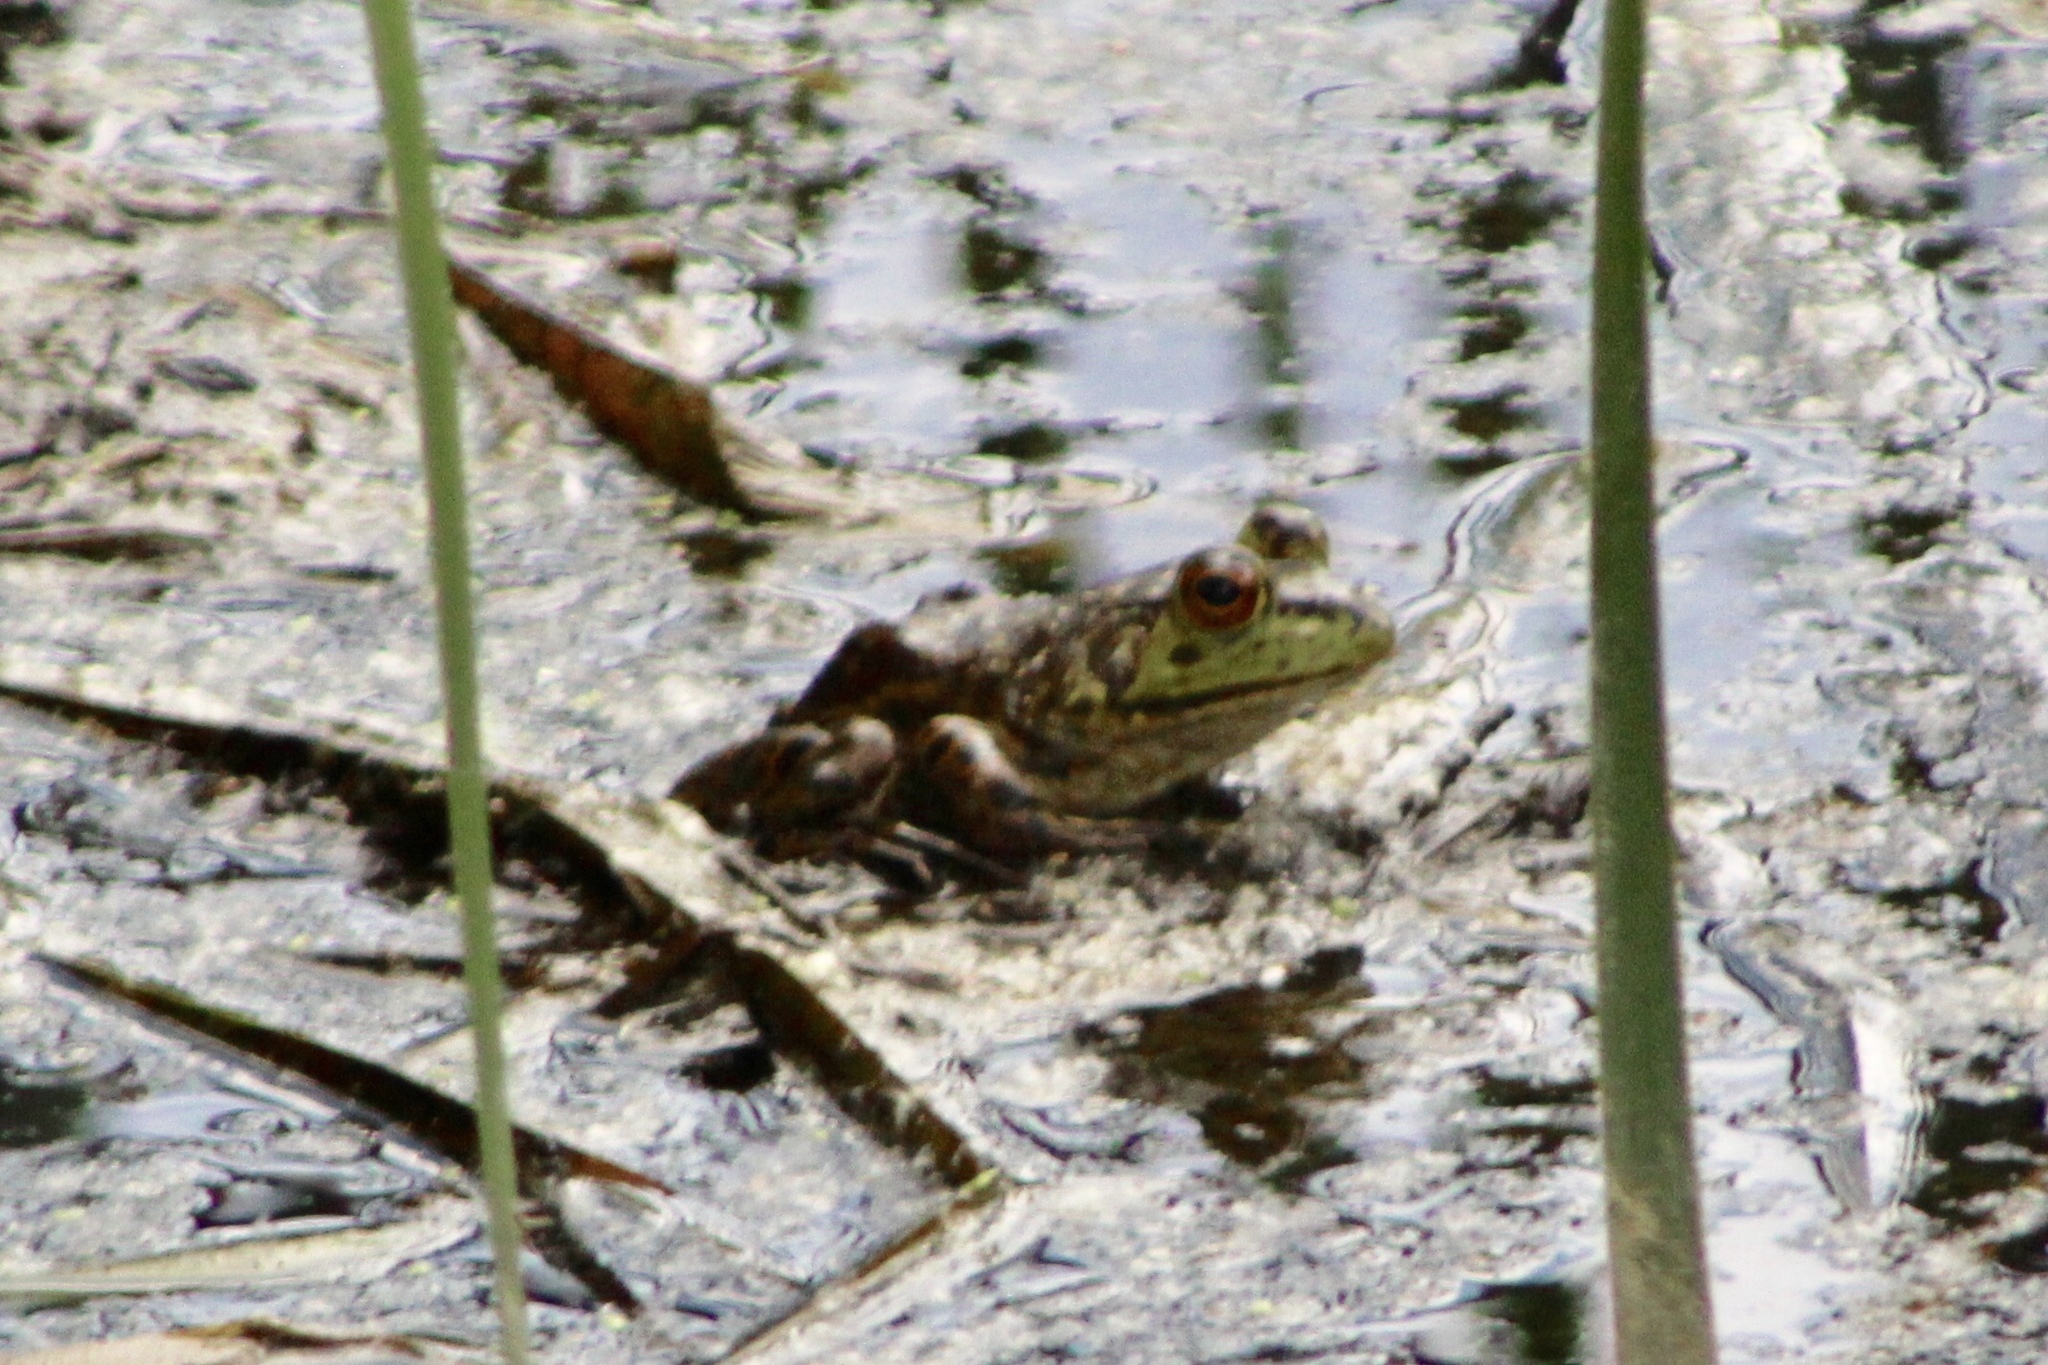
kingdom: Animalia
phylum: Chordata
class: Amphibia
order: Anura
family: Ranidae
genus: Lithobates
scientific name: Lithobates catesbeianus
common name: American bullfrog
